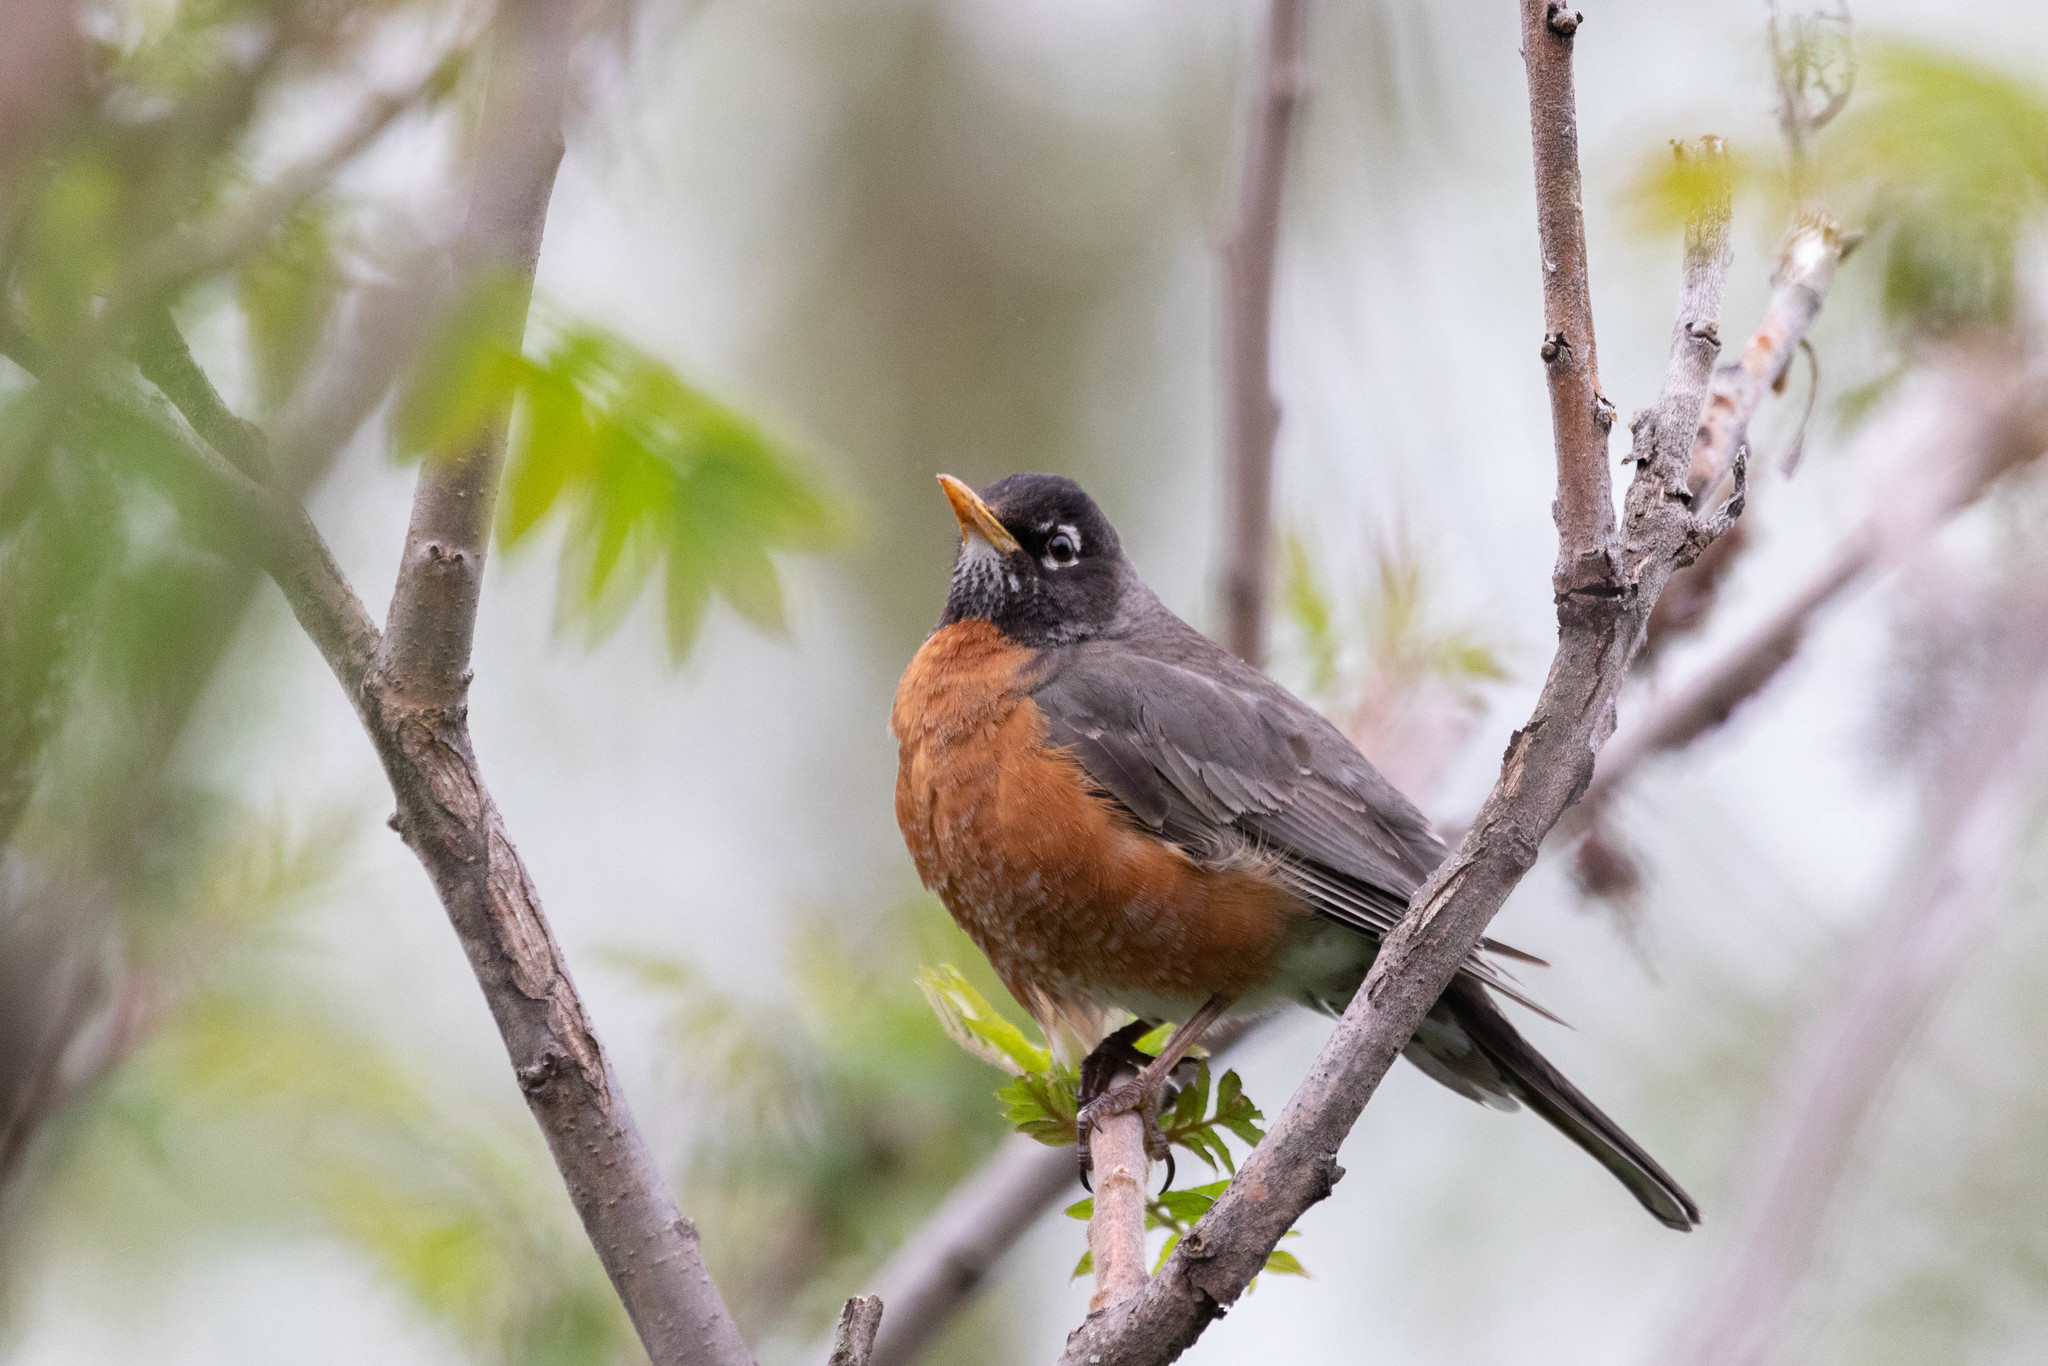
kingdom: Animalia
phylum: Chordata
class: Aves
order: Passeriformes
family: Turdidae
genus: Turdus
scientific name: Turdus migratorius
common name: American robin
